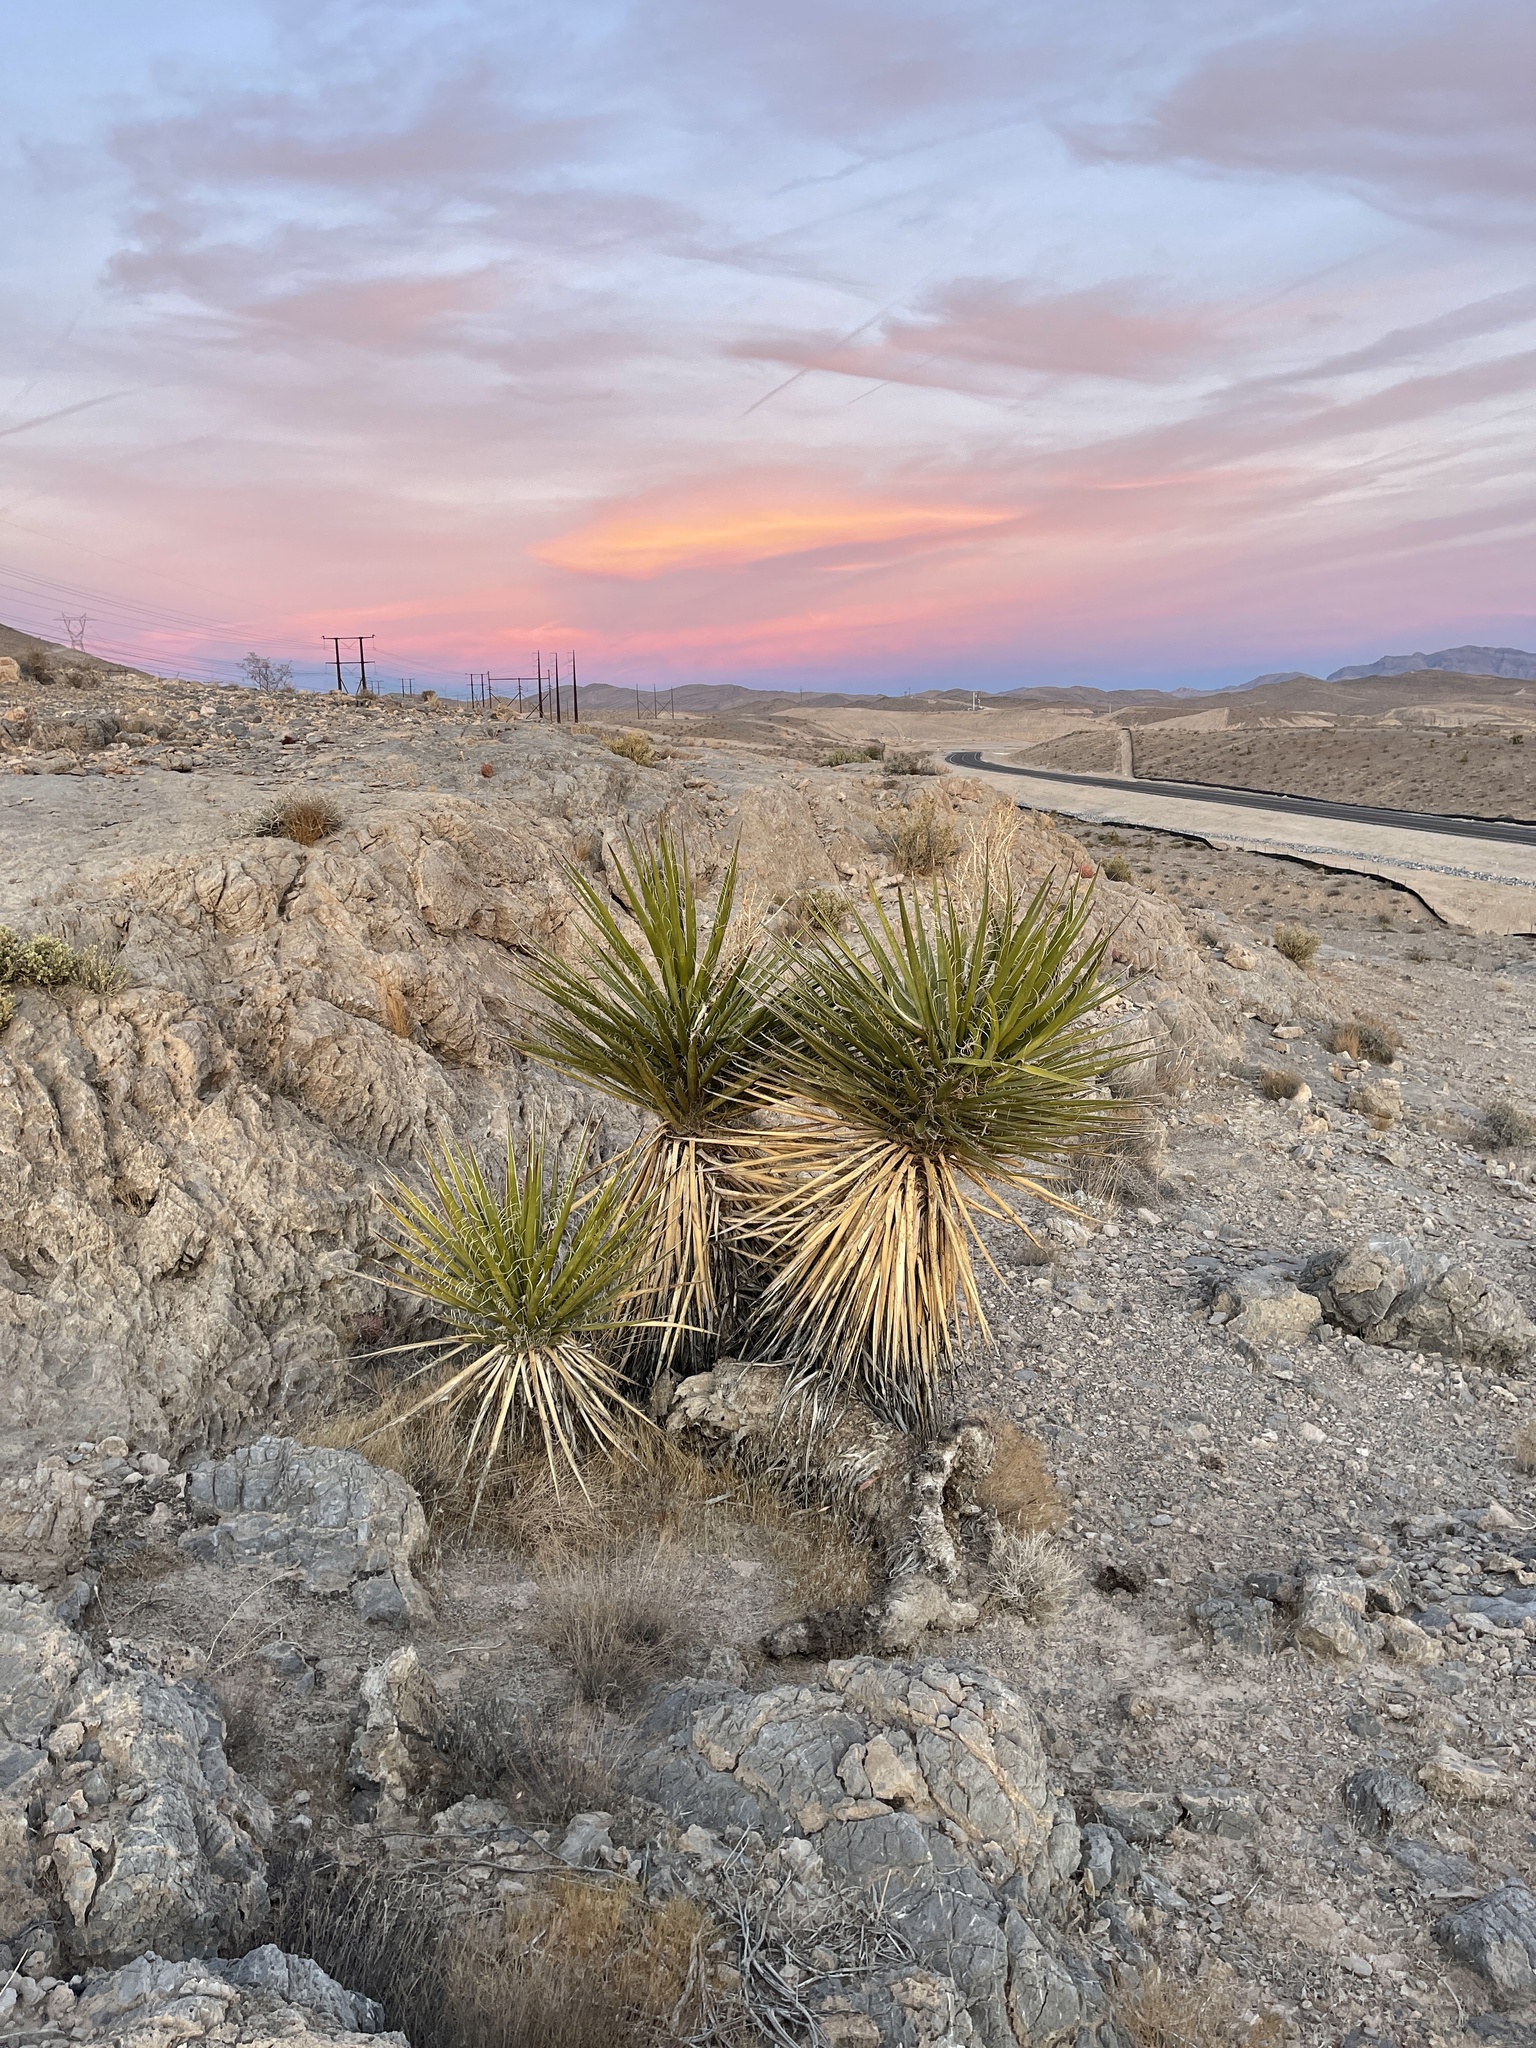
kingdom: Plantae
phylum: Tracheophyta
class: Liliopsida
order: Asparagales
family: Asparagaceae
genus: Yucca
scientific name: Yucca schidigera
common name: Mojave yucca
